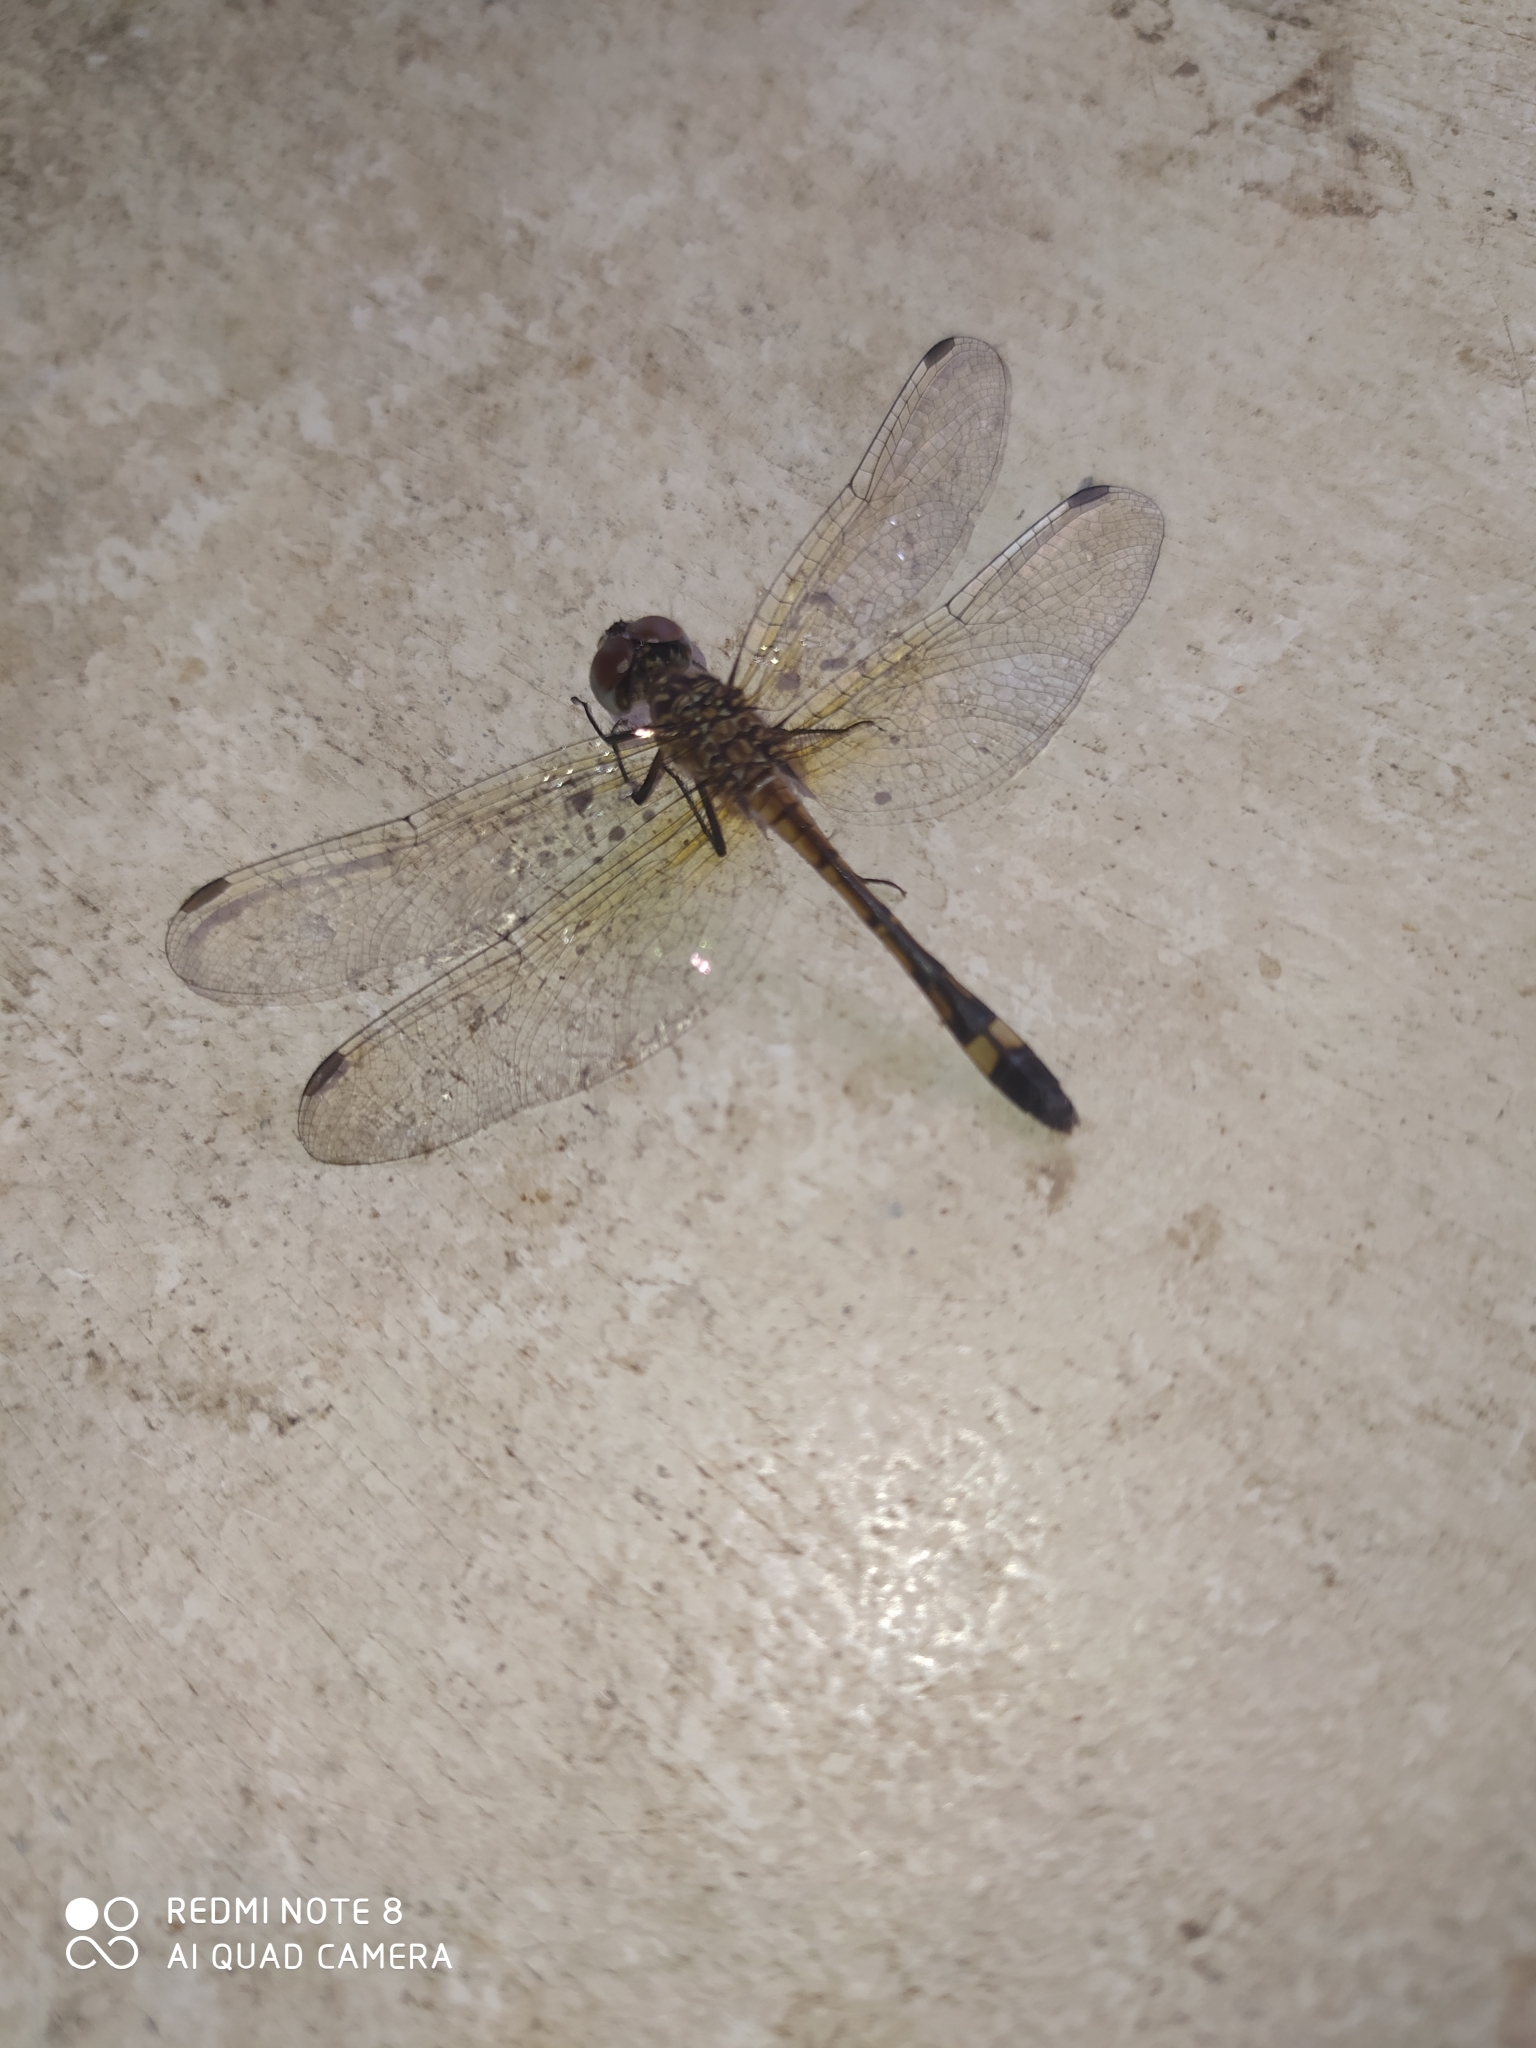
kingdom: Animalia
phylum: Arthropoda
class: Insecta
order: Odonata
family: Libellulidae
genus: Micrathyria
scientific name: Micrathyria ocellata
